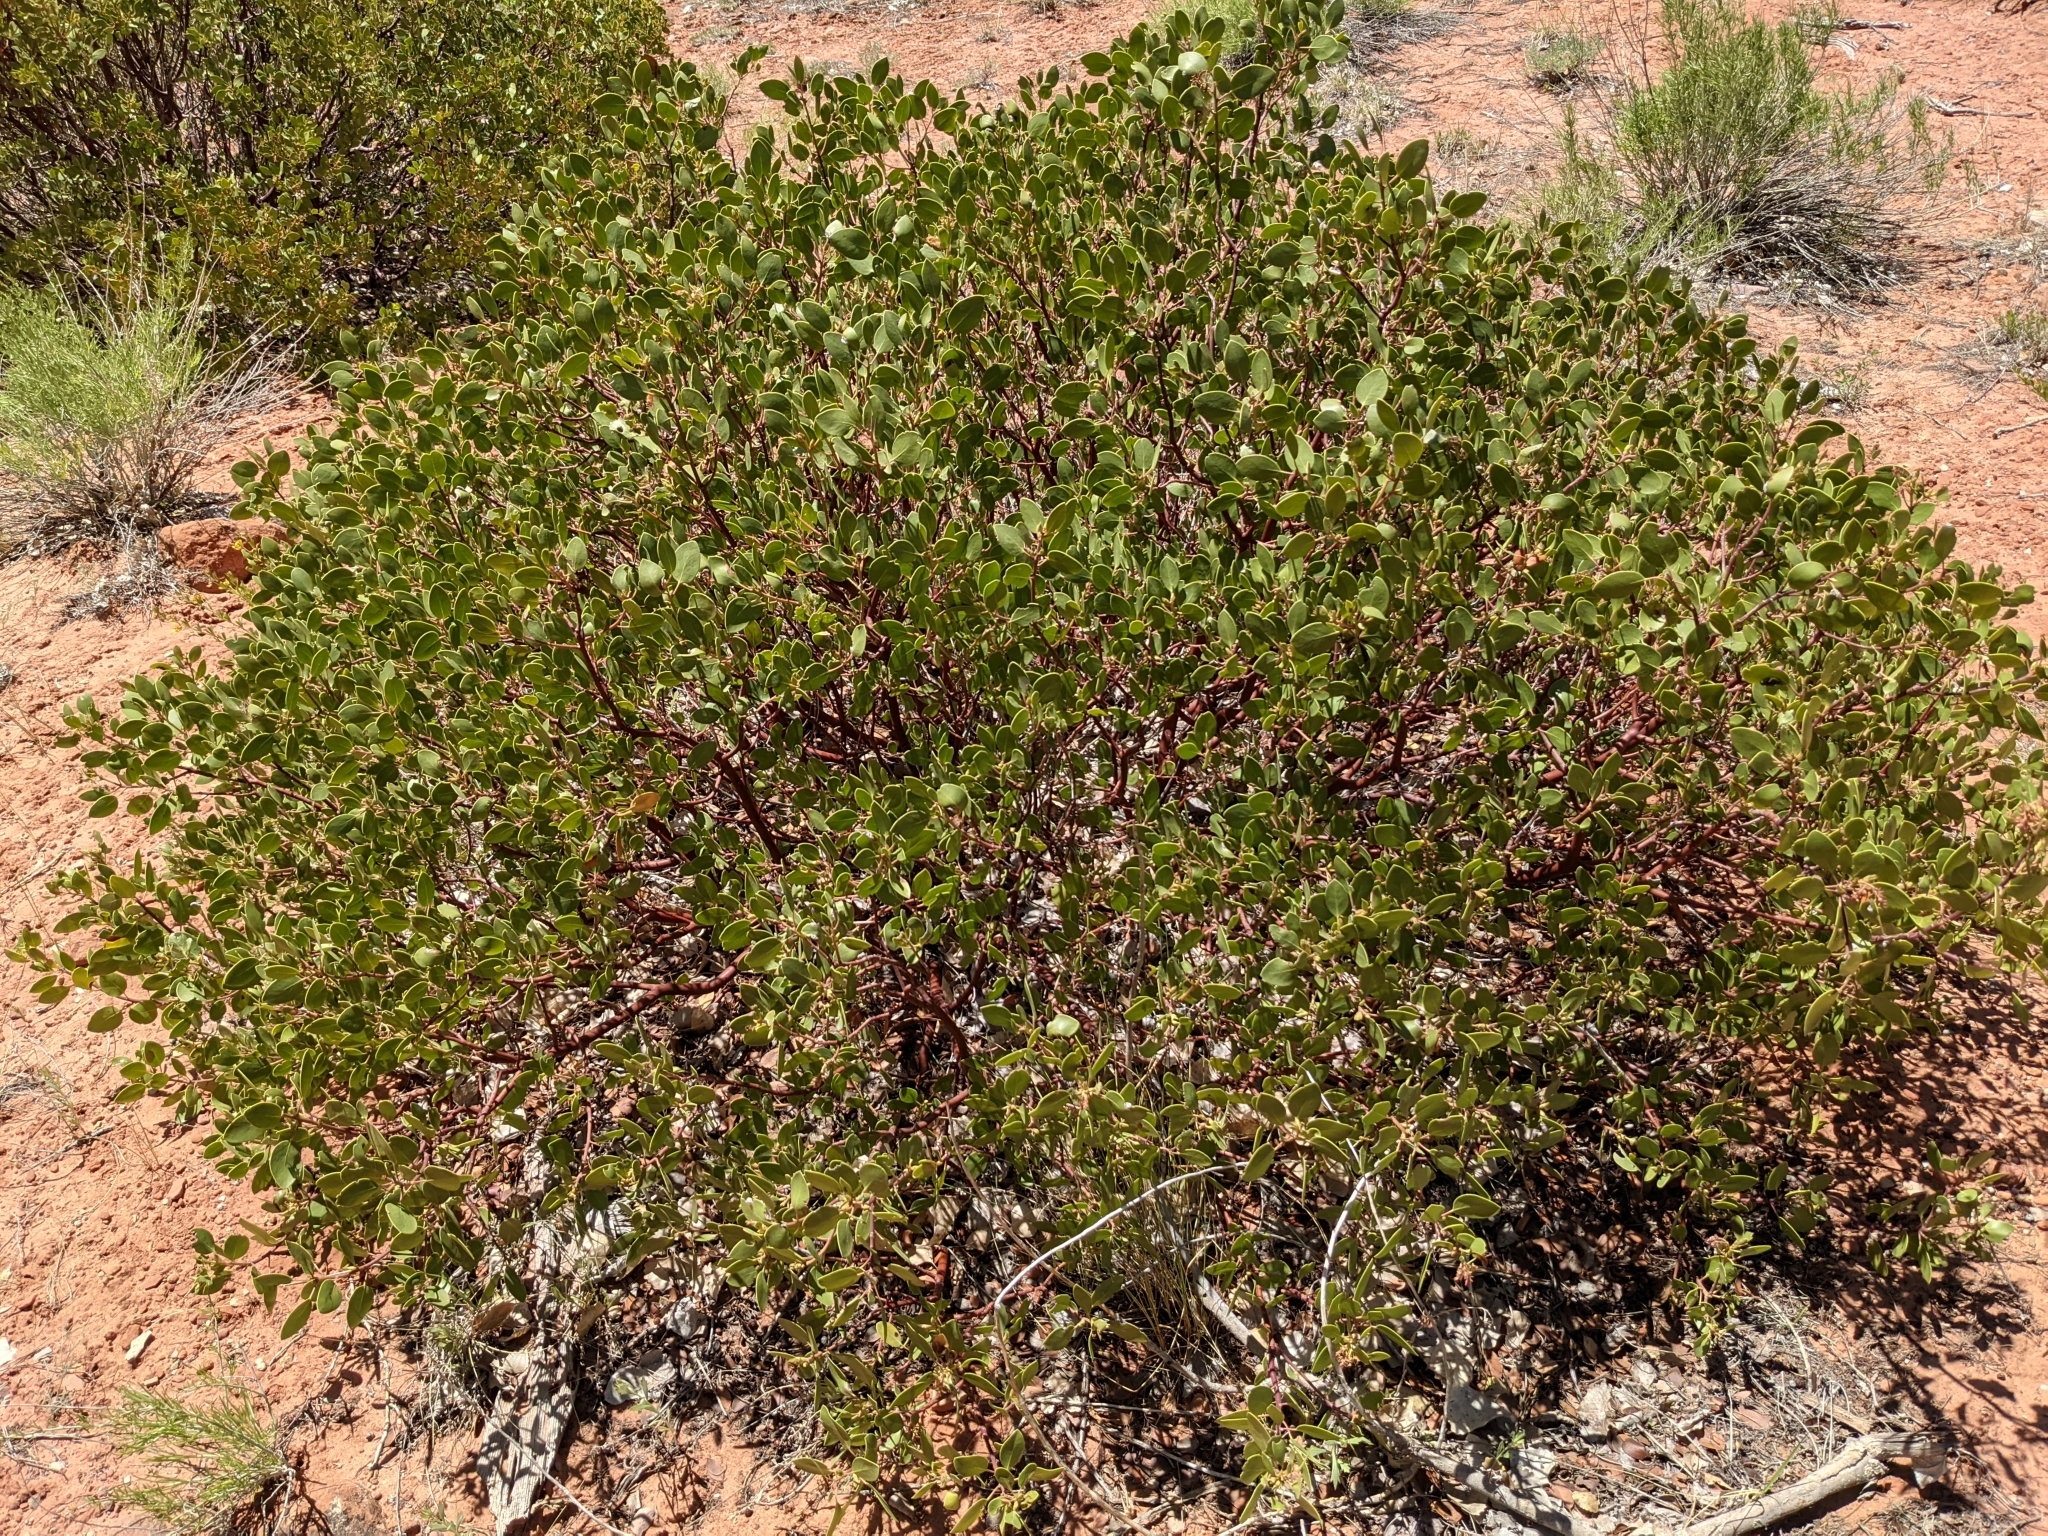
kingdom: Plantae
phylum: Tracheophyta
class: Magnoliopsida
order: Ericales
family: Ericaceae
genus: Arctostaphylos
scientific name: Arctostaphylos patula
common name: Green-leaf manzanita
